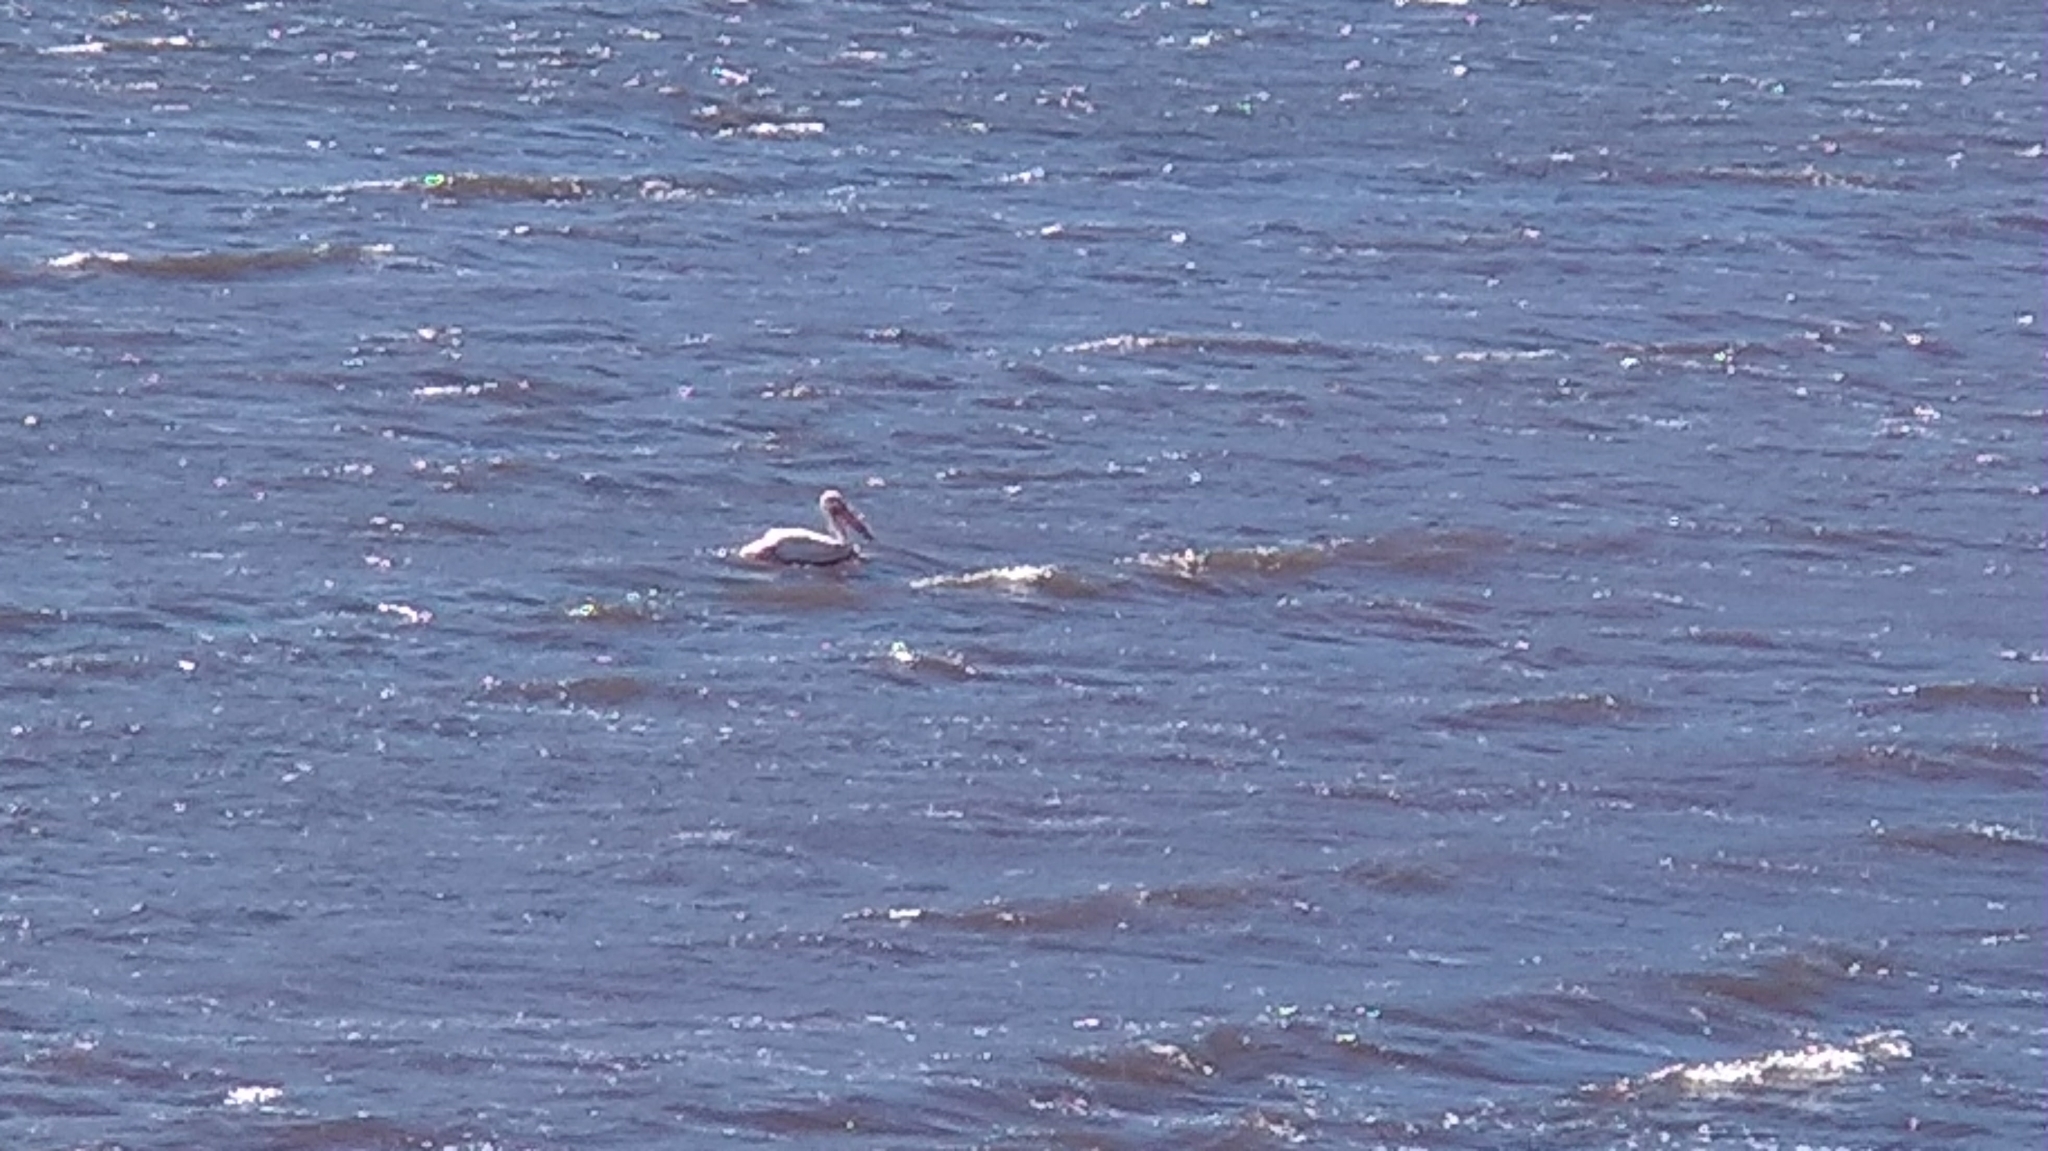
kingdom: Animalia
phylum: Chordata
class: Aves
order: Pelecaniformes
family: Pelecanidae
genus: Pelecanus
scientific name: Pelecanus erythrorhynchos
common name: American white pelican
